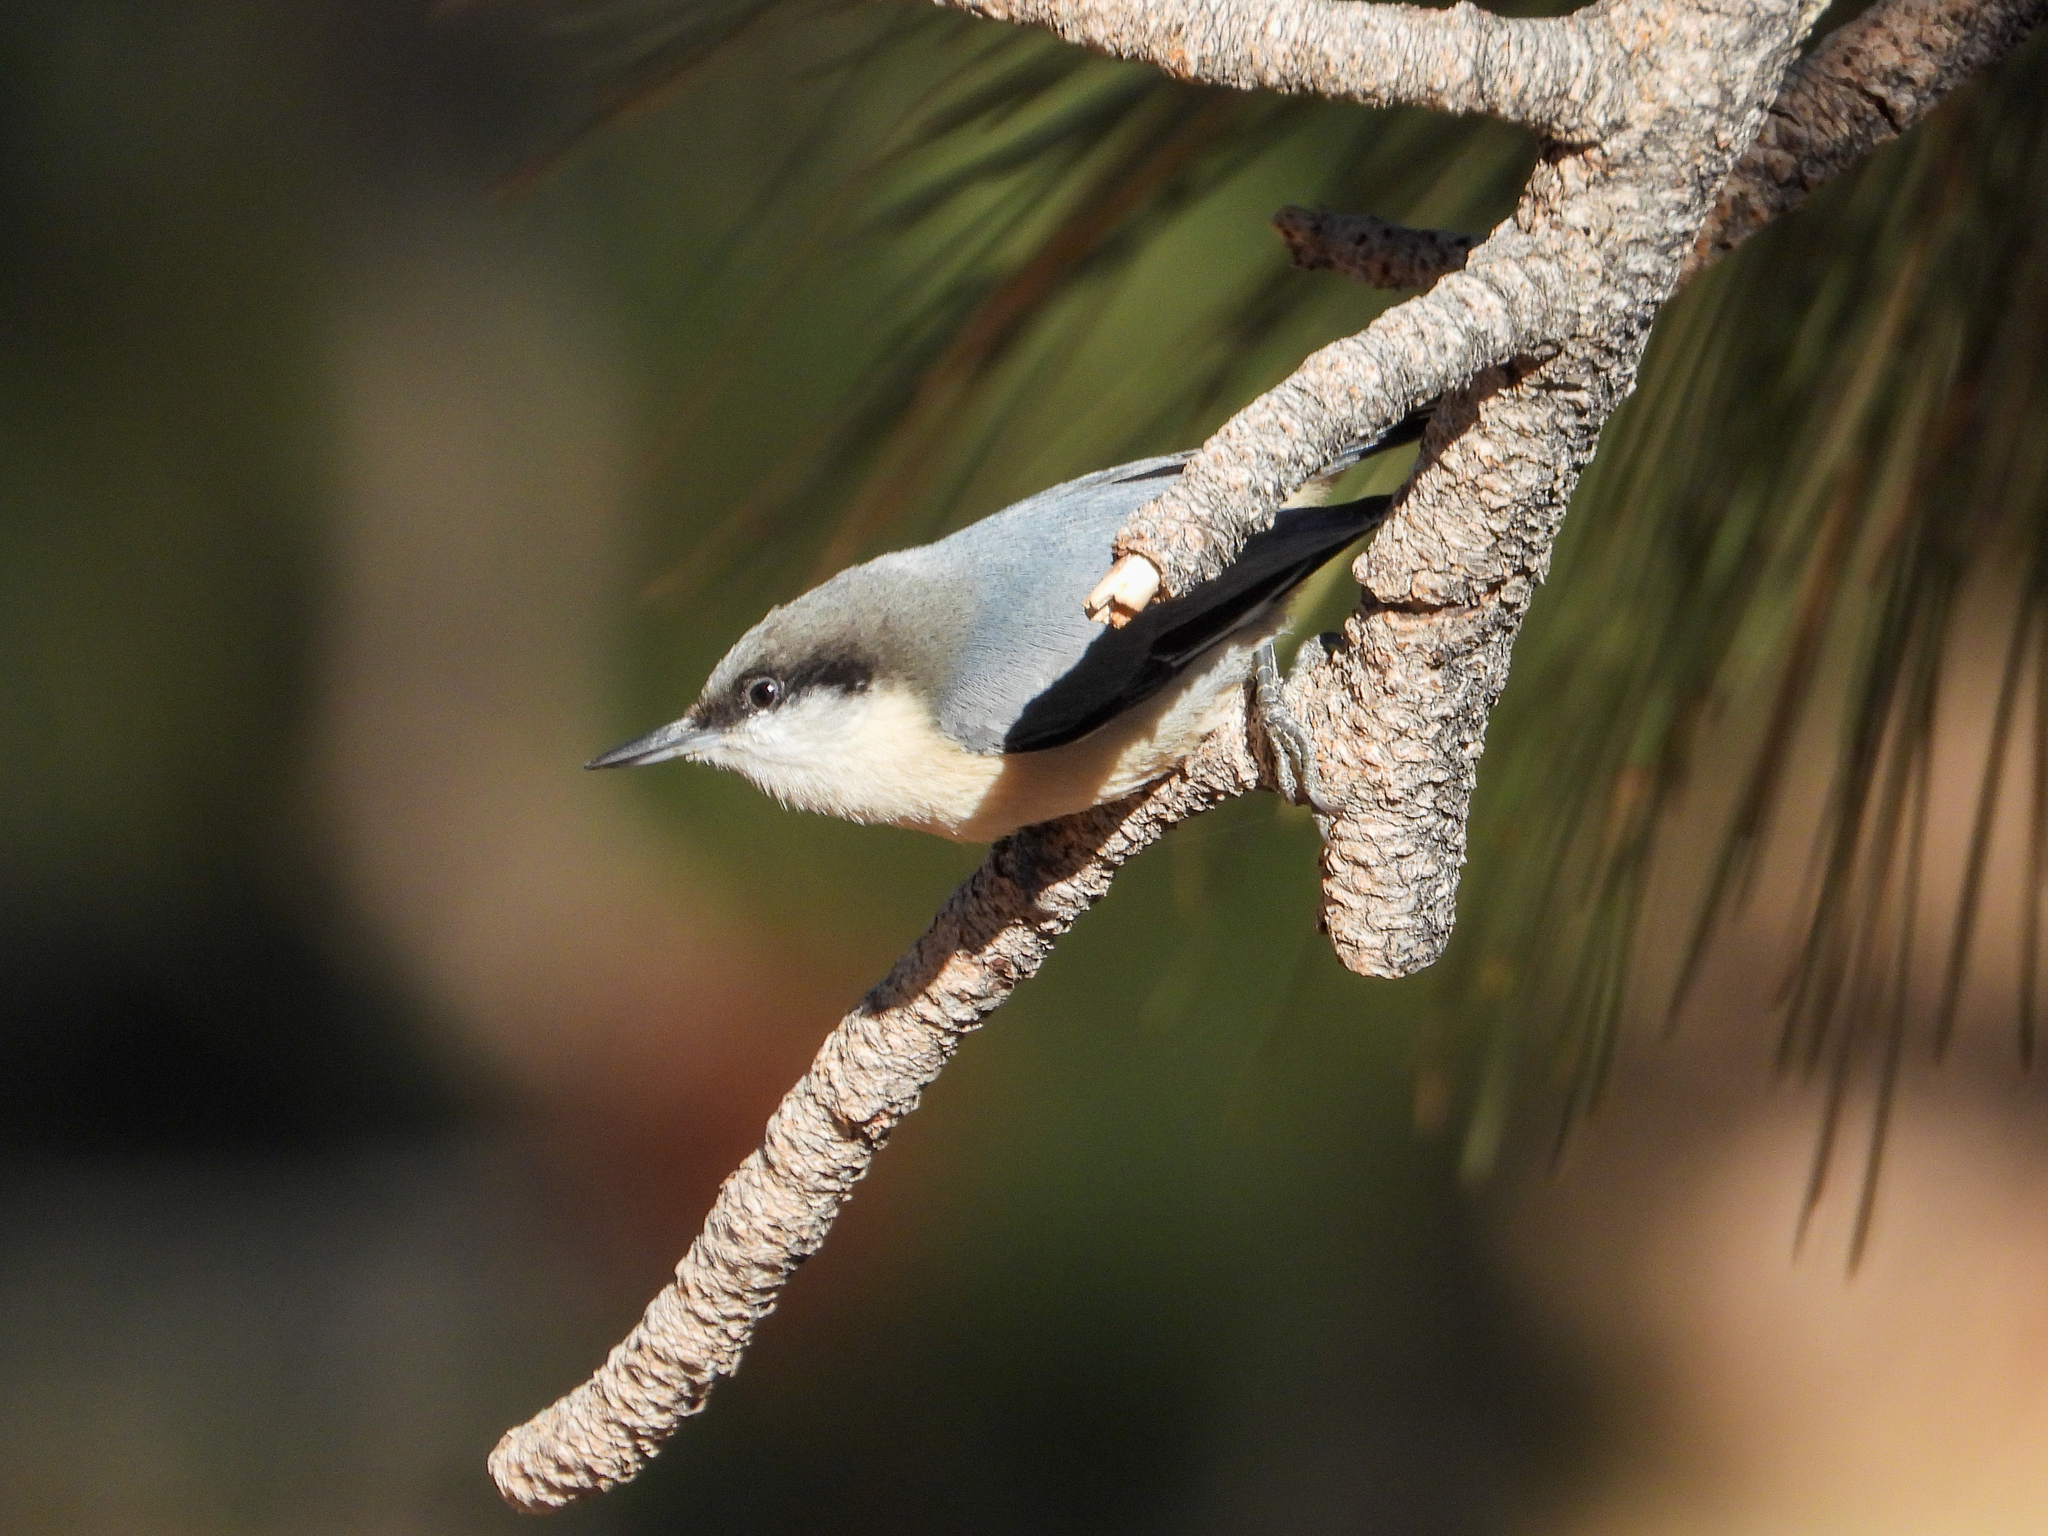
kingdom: Animalia
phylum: Chordata
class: Aves
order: Passeriformes
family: Sittidae
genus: Sitta
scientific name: Sitta pygmaea
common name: Pygmy nuthatch
